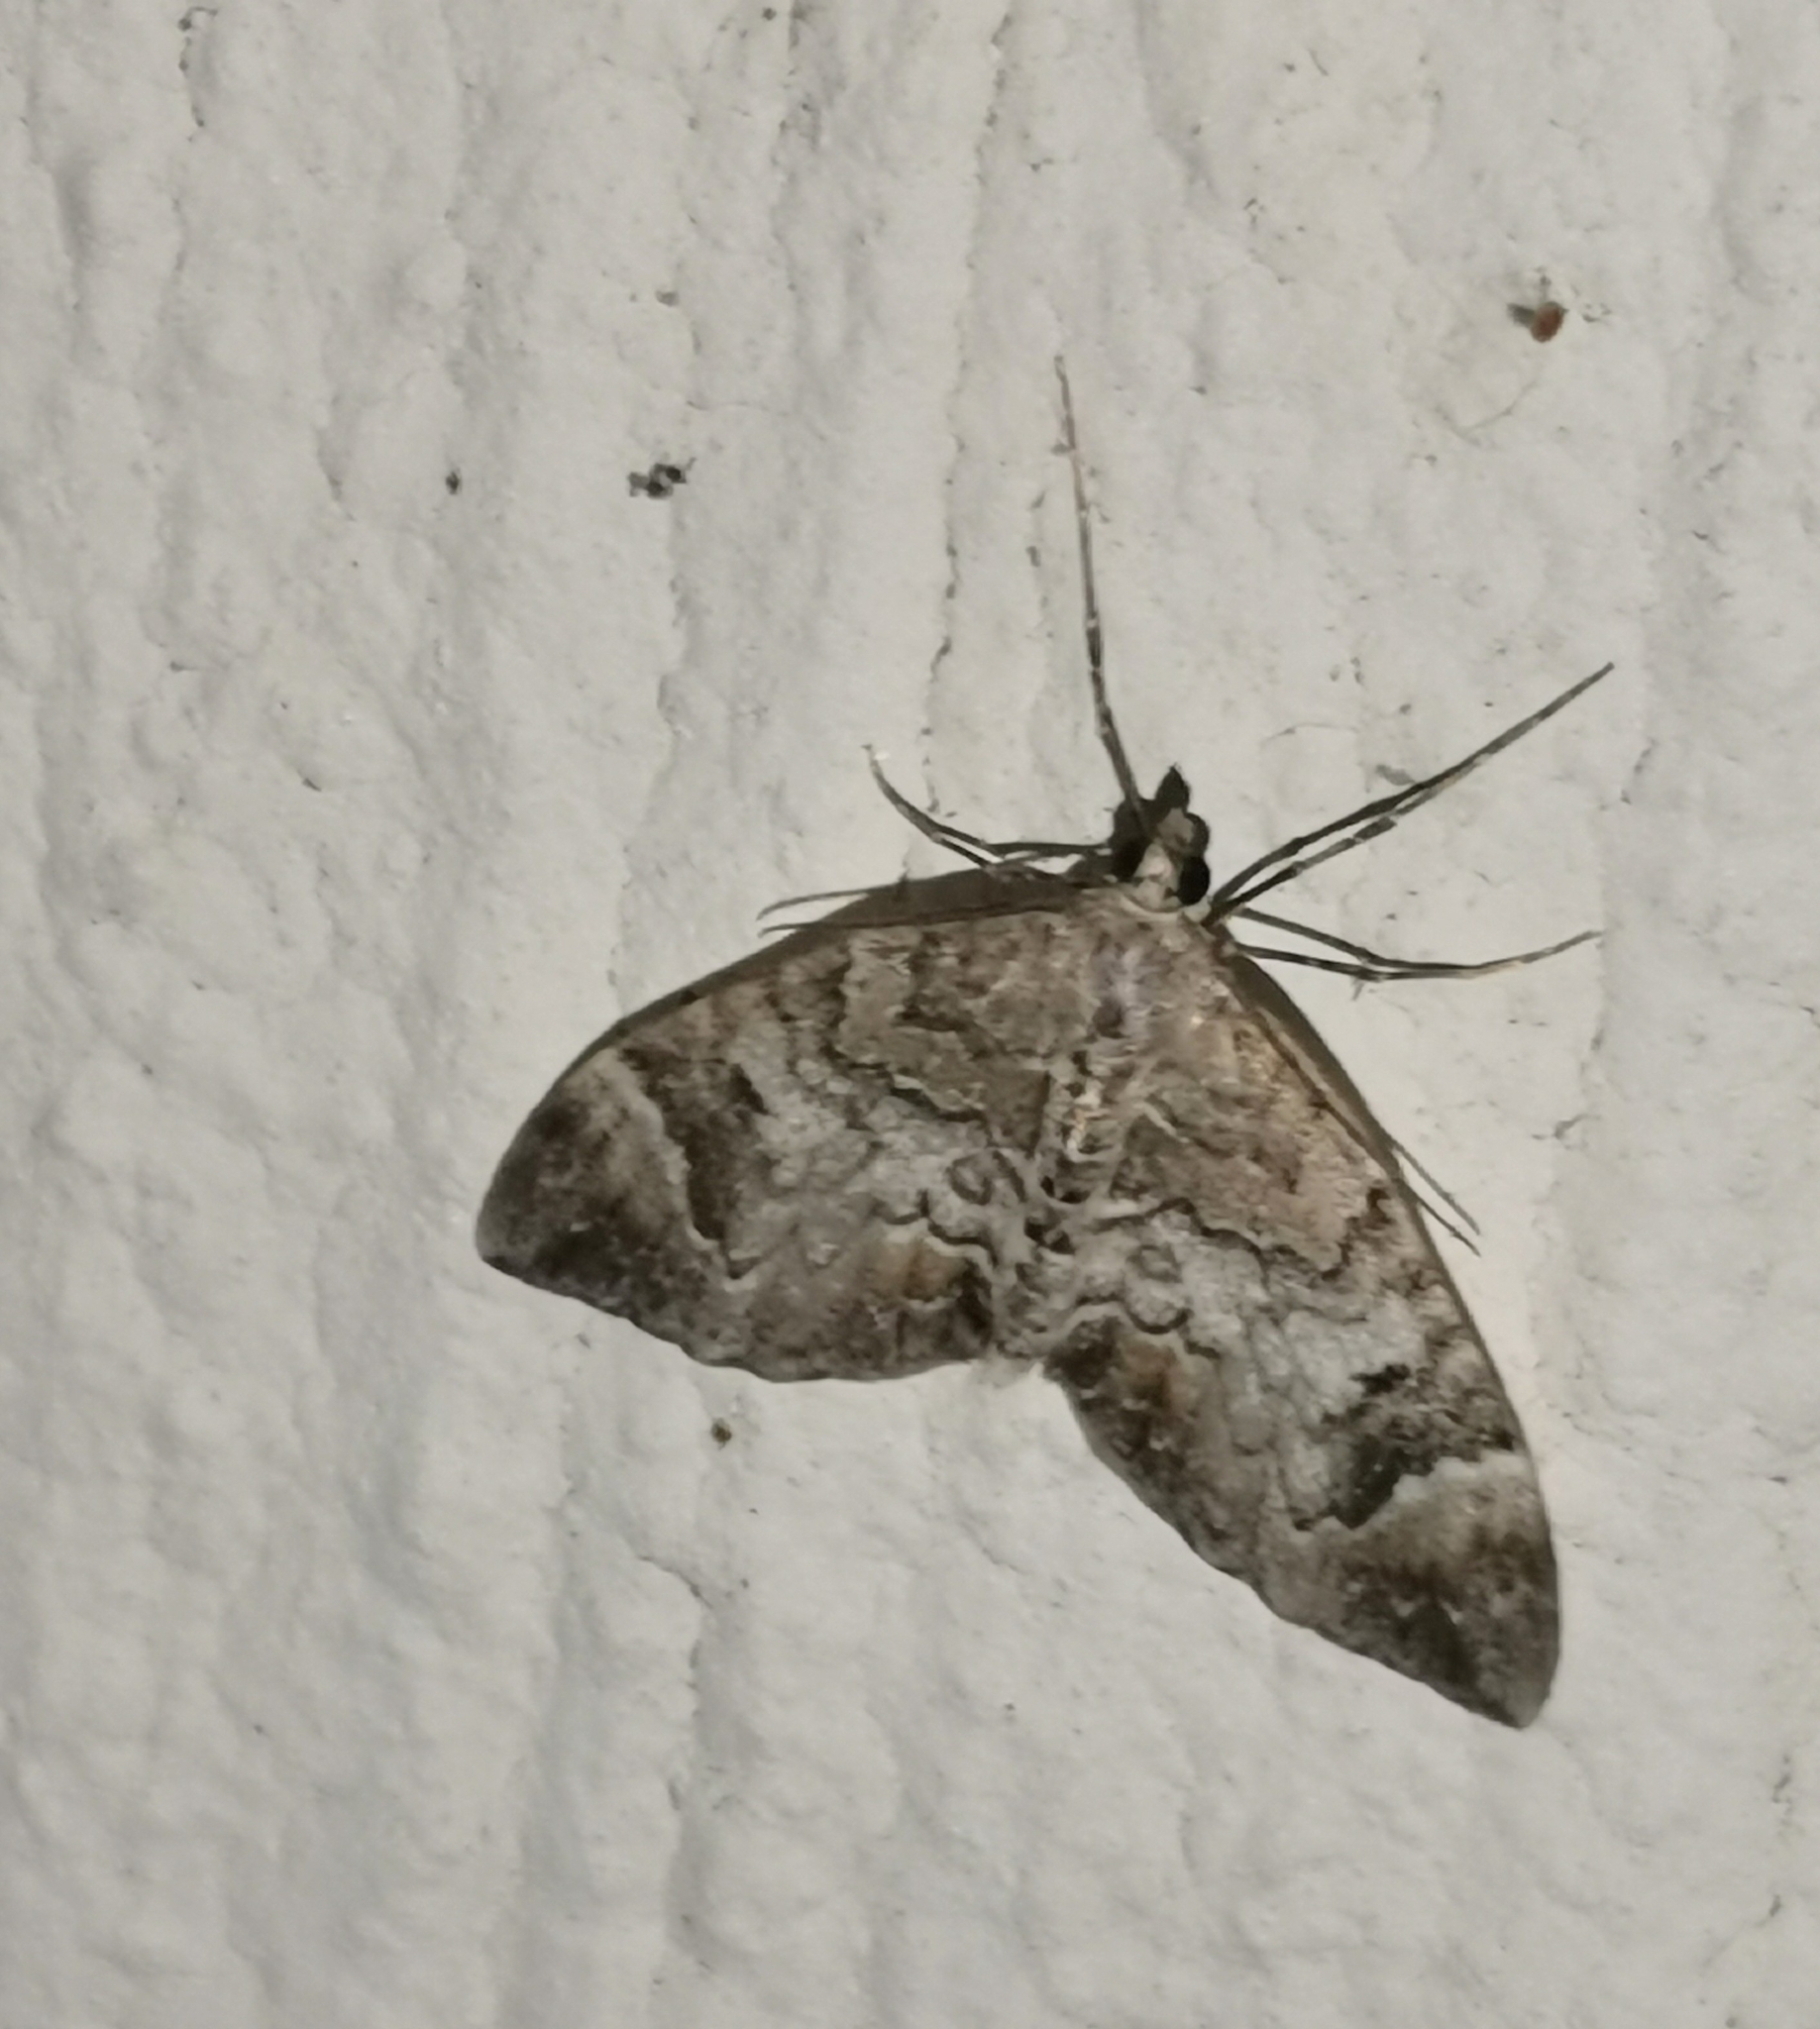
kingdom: Animalia
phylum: Arthropoda
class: Insecta
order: Lepidoptera
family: Geometridae
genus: Dysstroma
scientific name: Dysstroma citrata
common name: Dark marbled carpet
